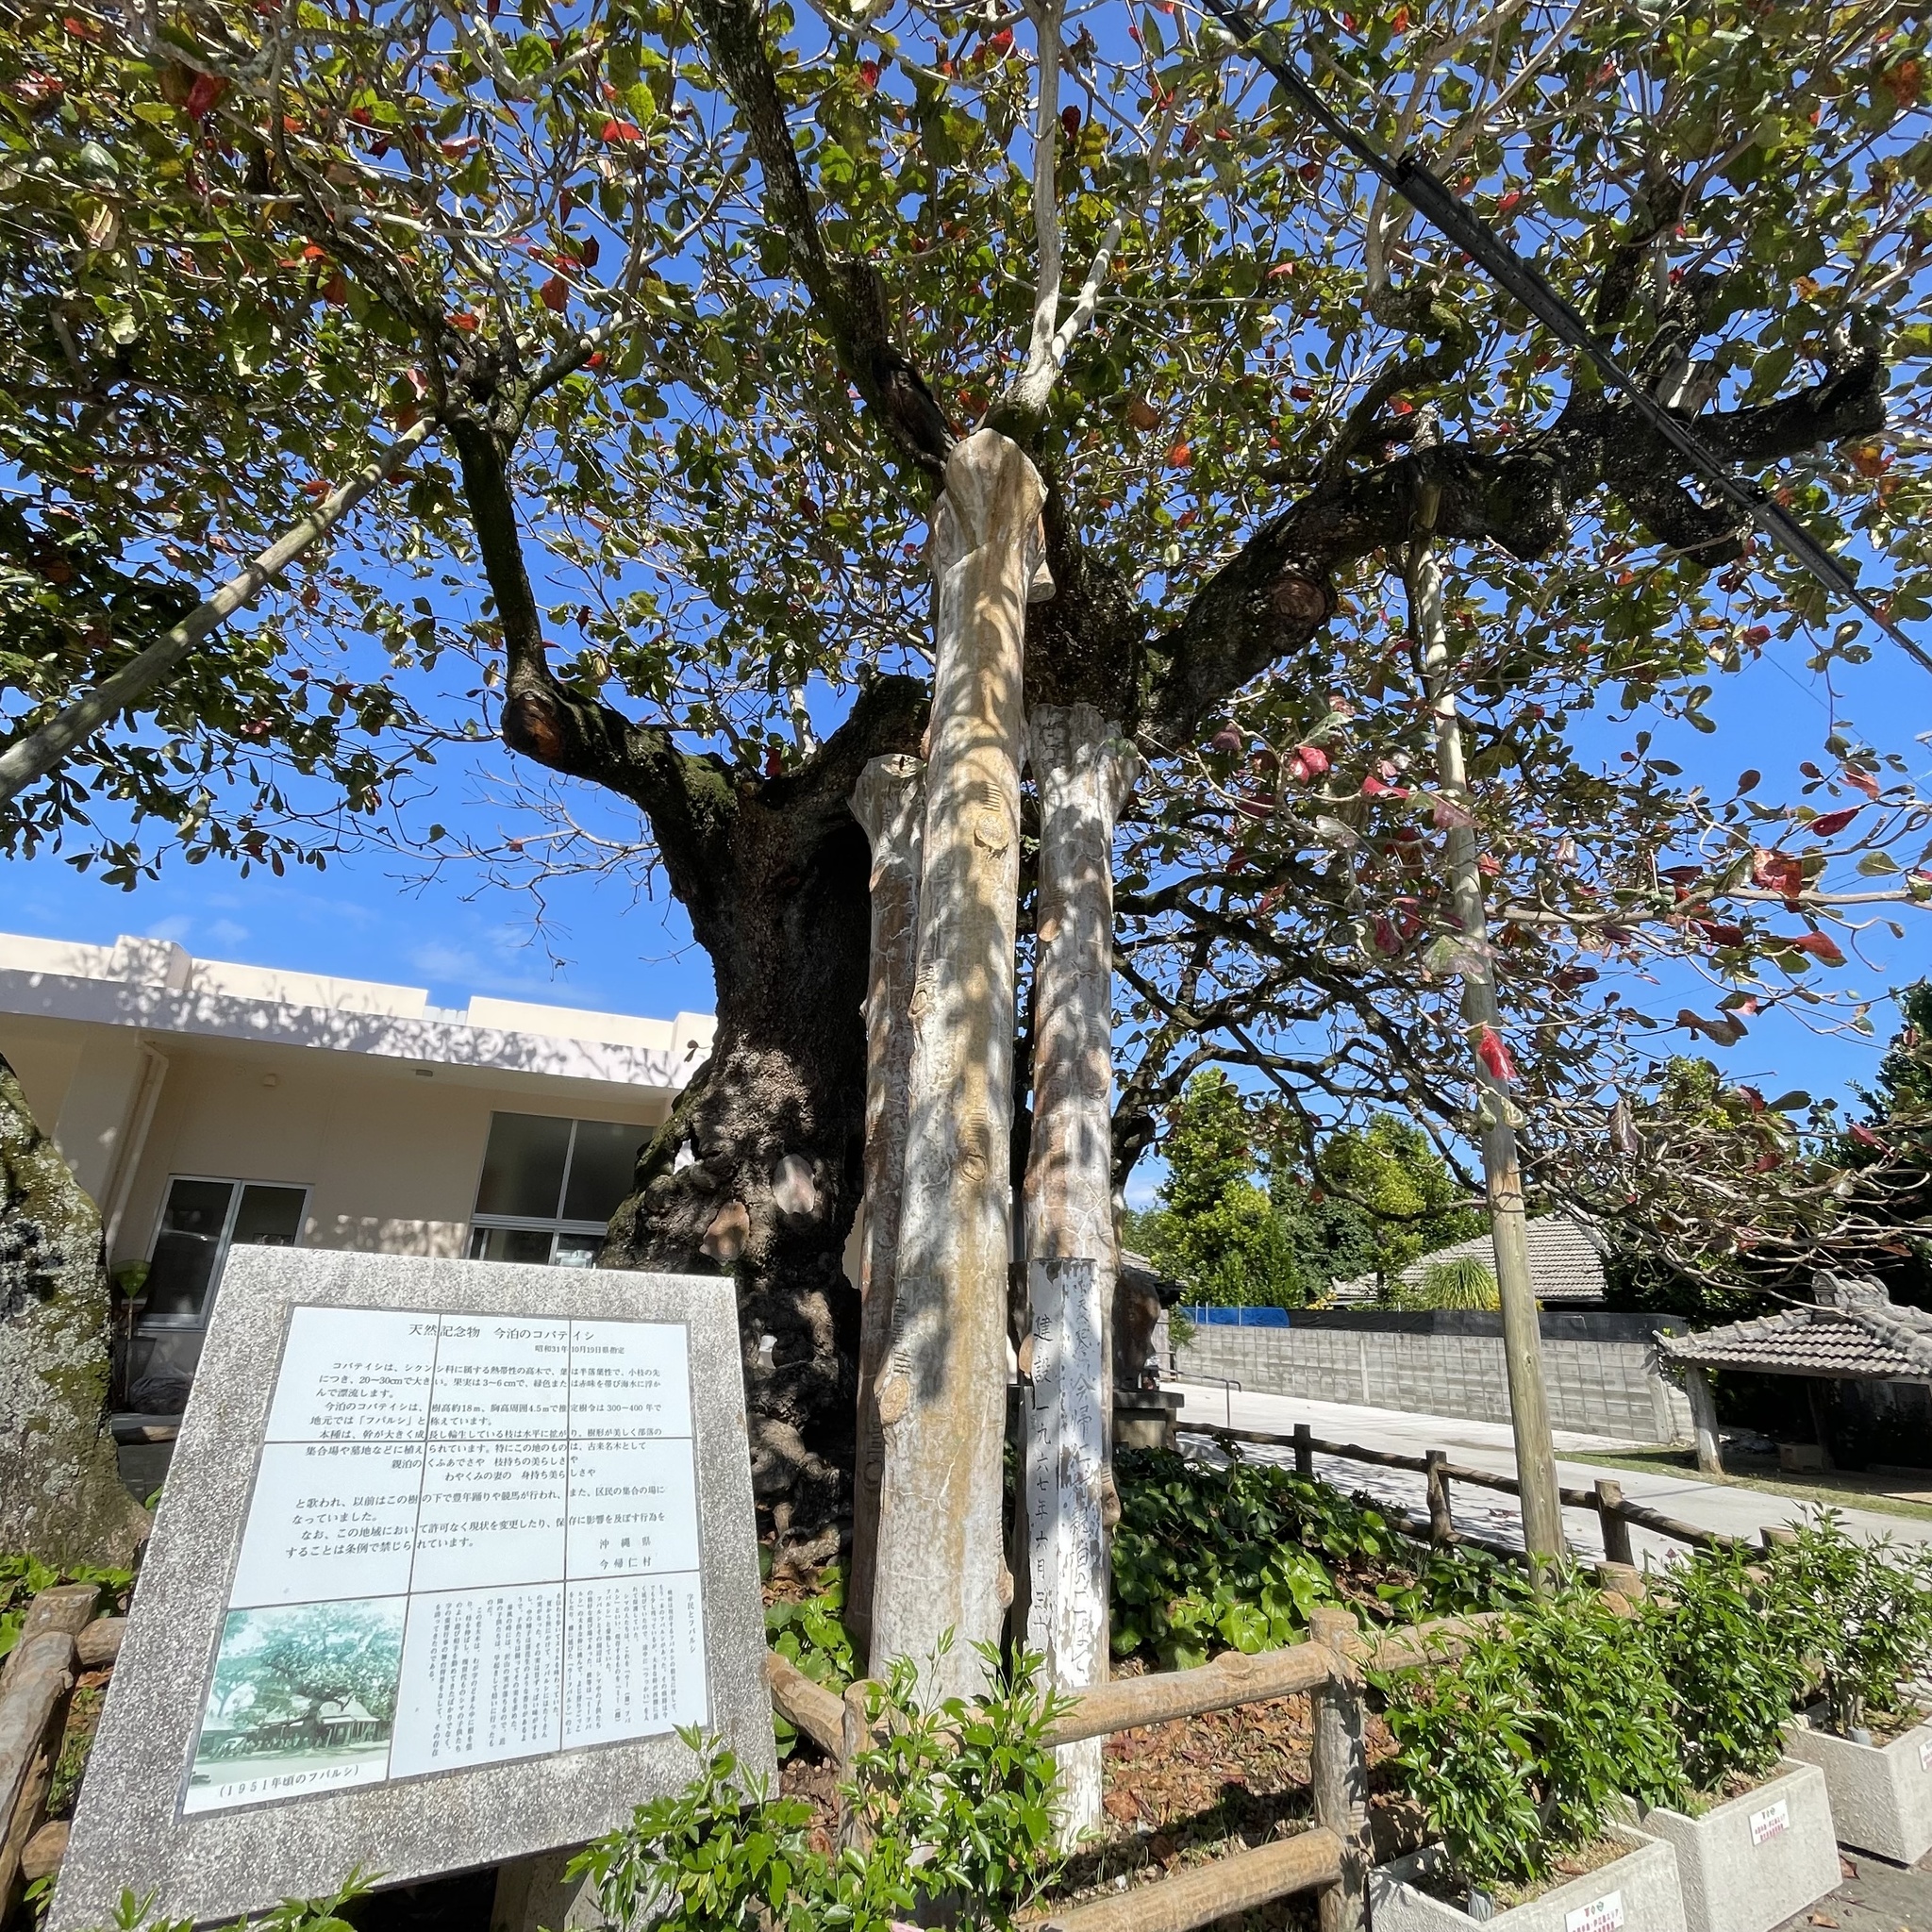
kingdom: Plantae
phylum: Tracheophyta
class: Magnoliopsida
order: Myrtales
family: Combretaceae
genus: Terminalia
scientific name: Terminalia catappa
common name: Tropical almond
